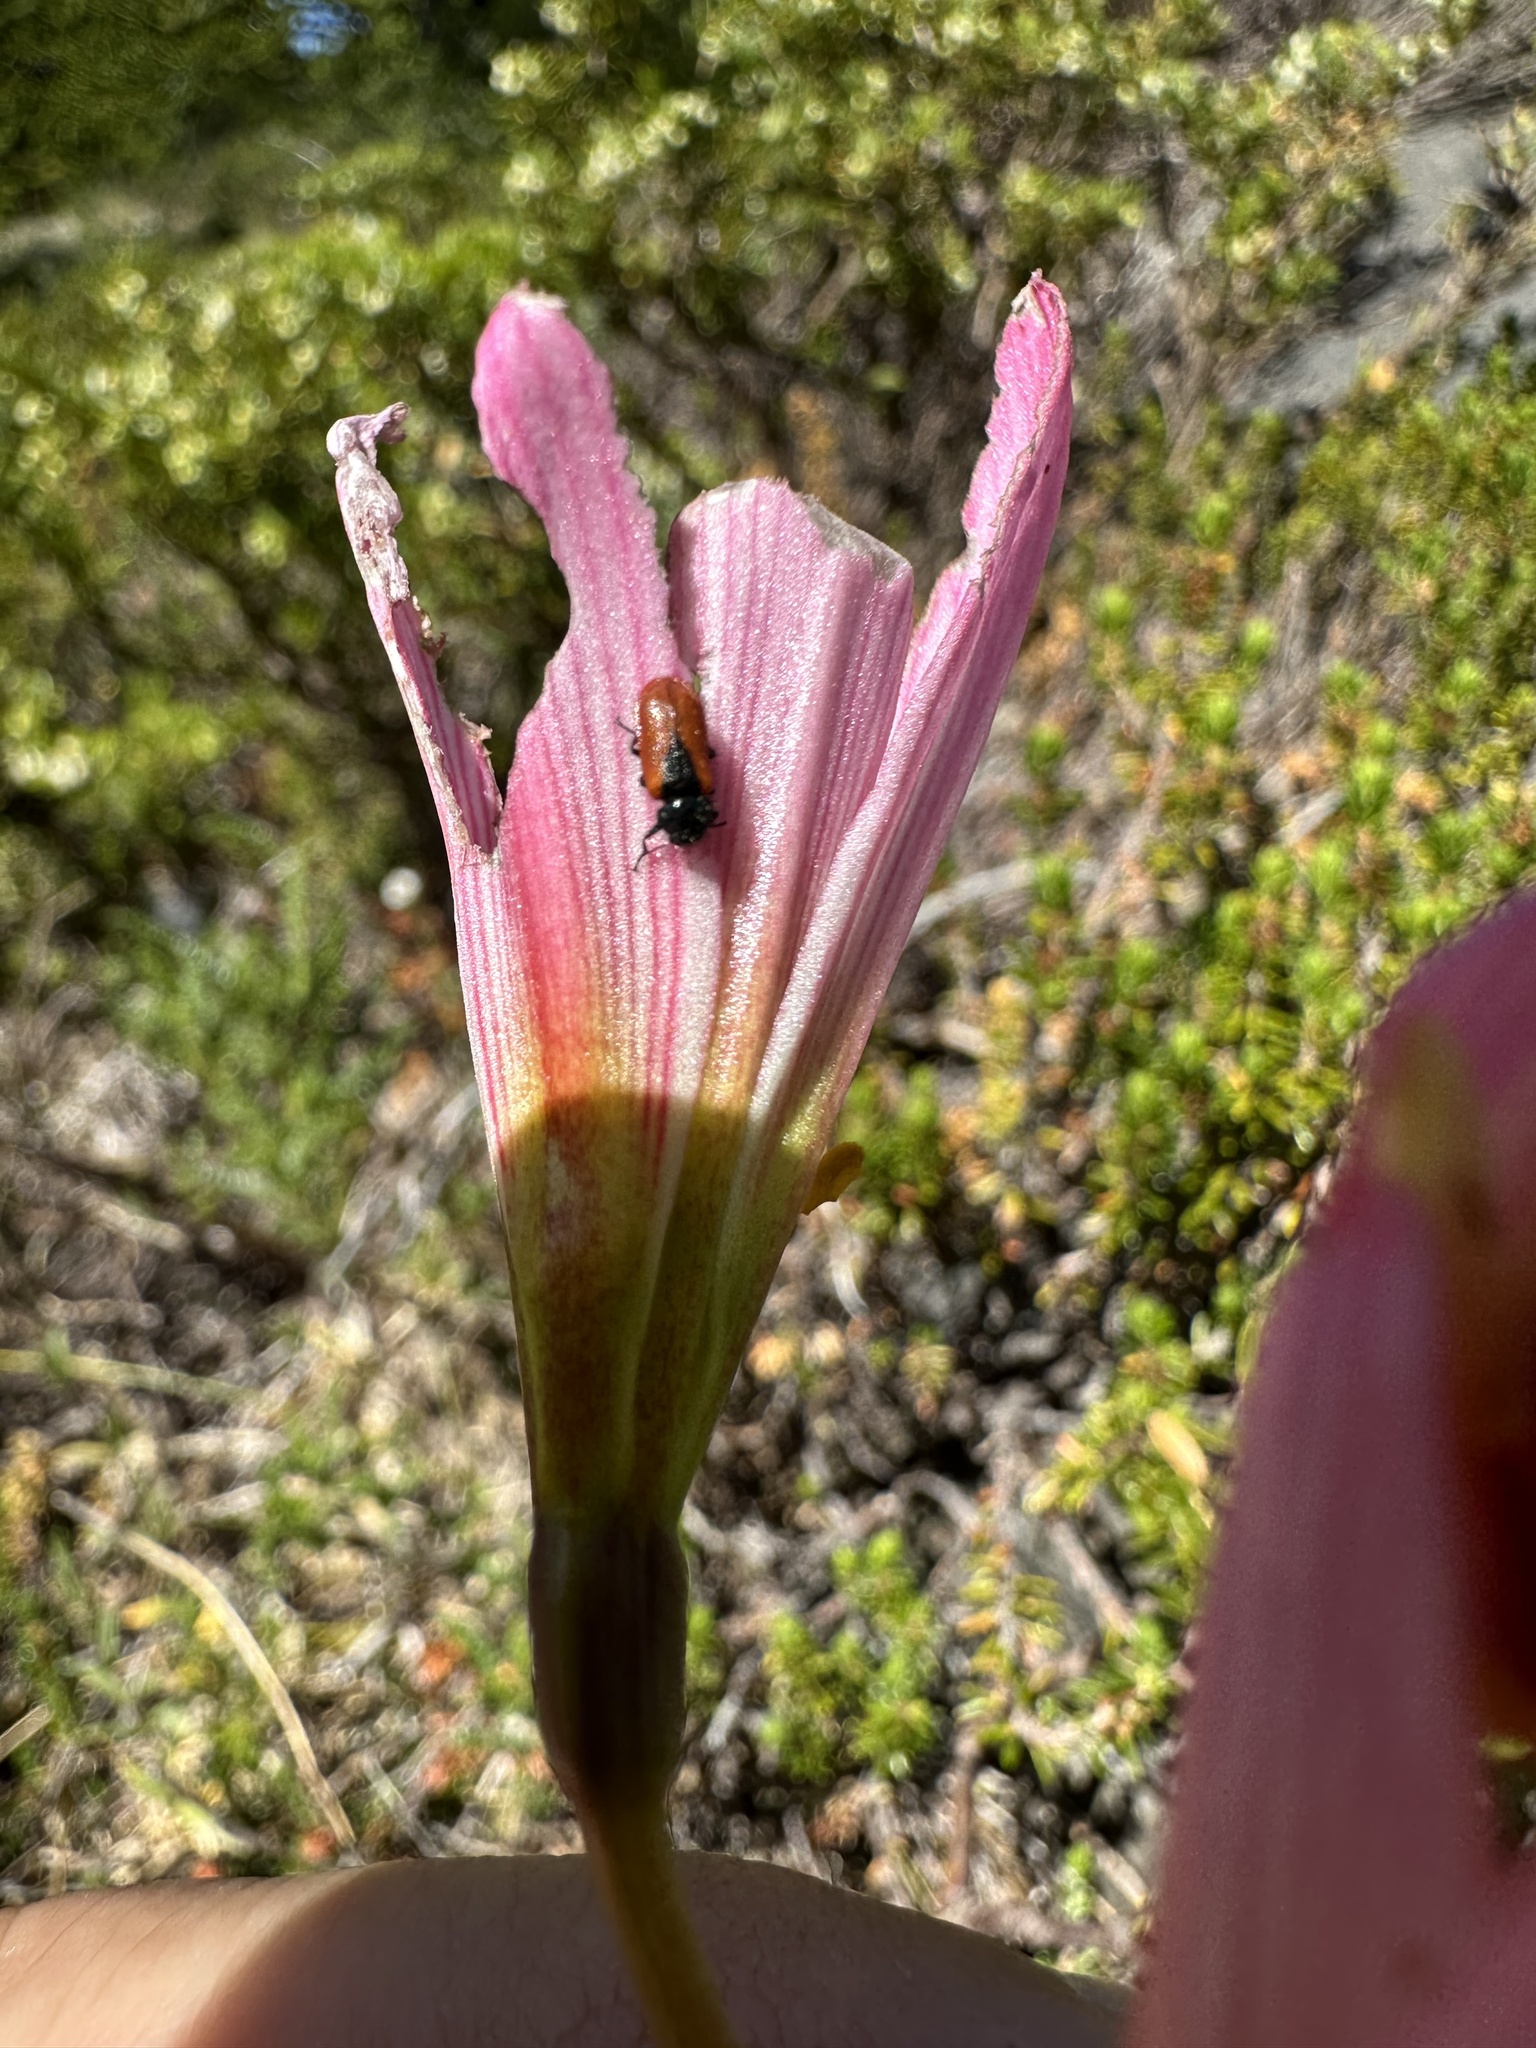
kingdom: Animalia
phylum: Arthropoda
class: Insecta
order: Coleoptera
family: Melyridae
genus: Arthrobrachus
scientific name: Arthrobrachus nigromaculatus
